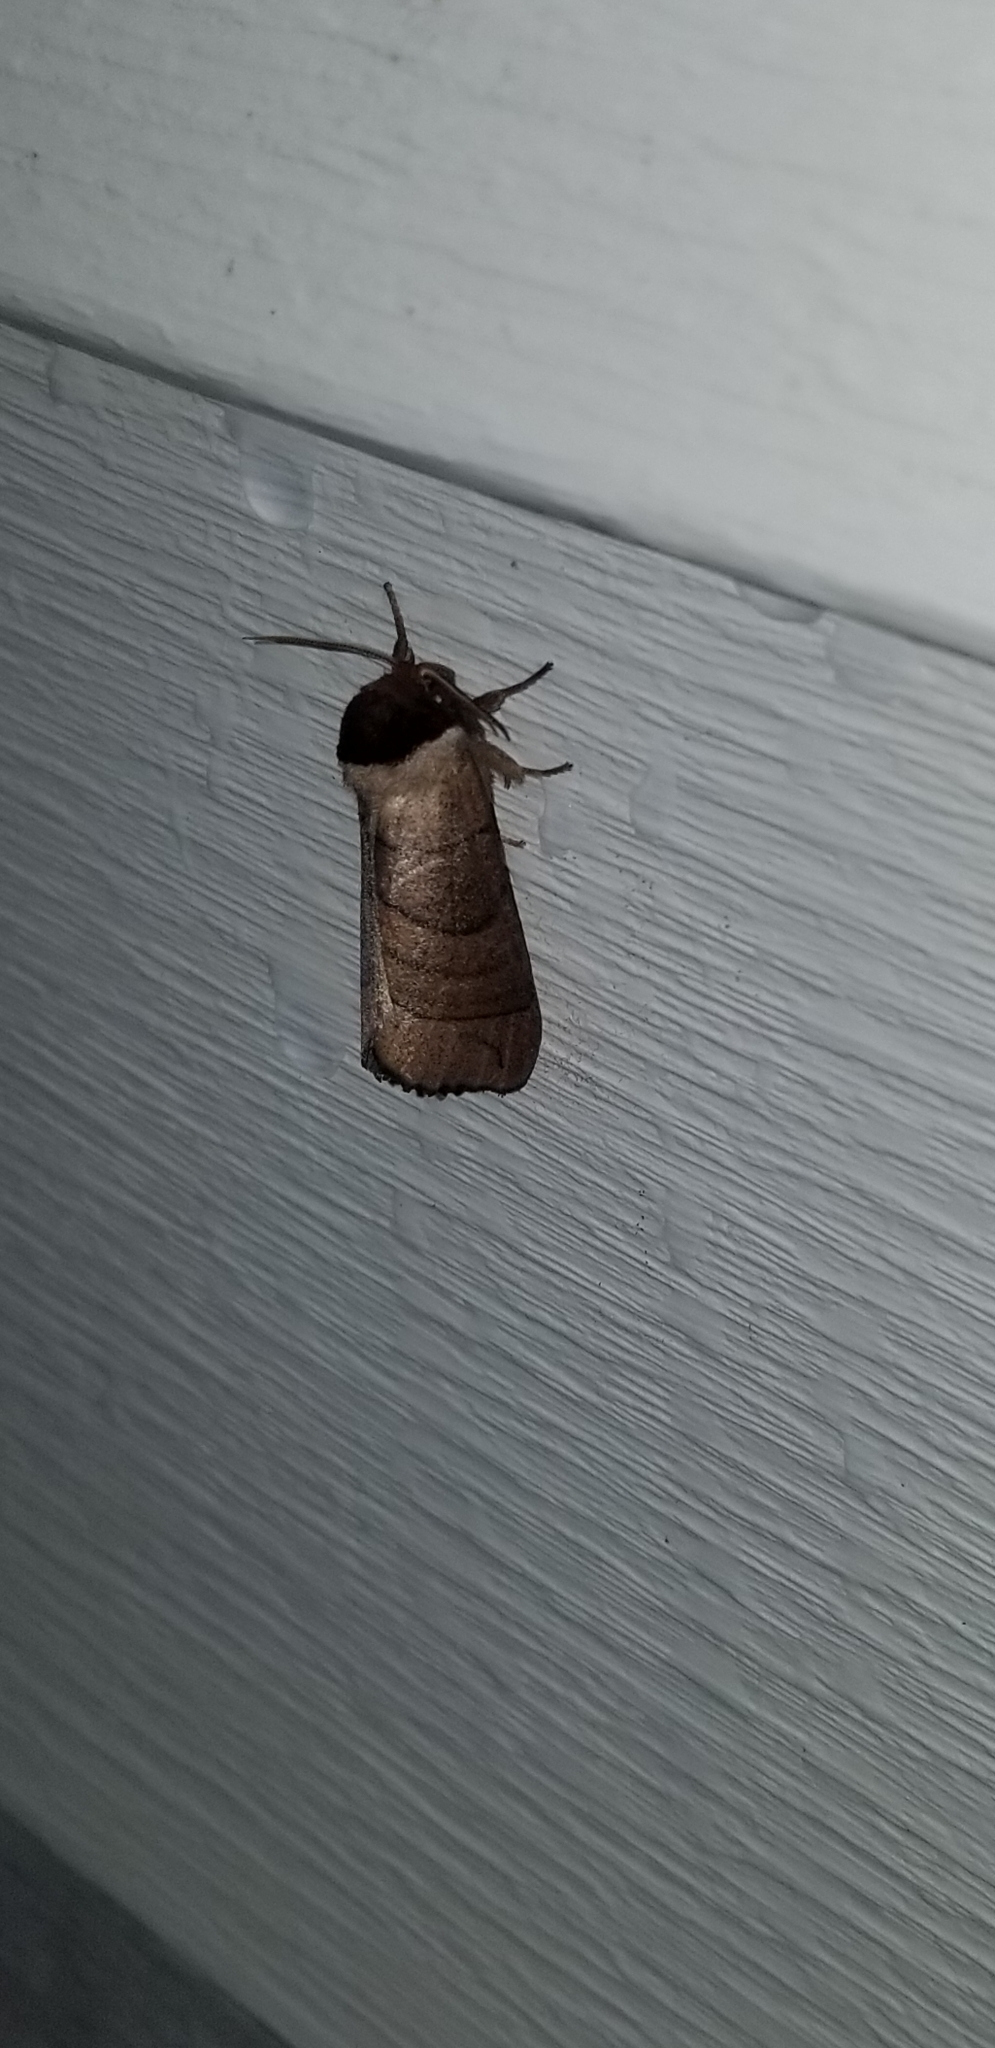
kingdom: Animalia
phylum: Arthropoda
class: Insecta
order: Lepidoptera
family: Notodontidae
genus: Datana
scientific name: Datana angusii
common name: Angus's datana
